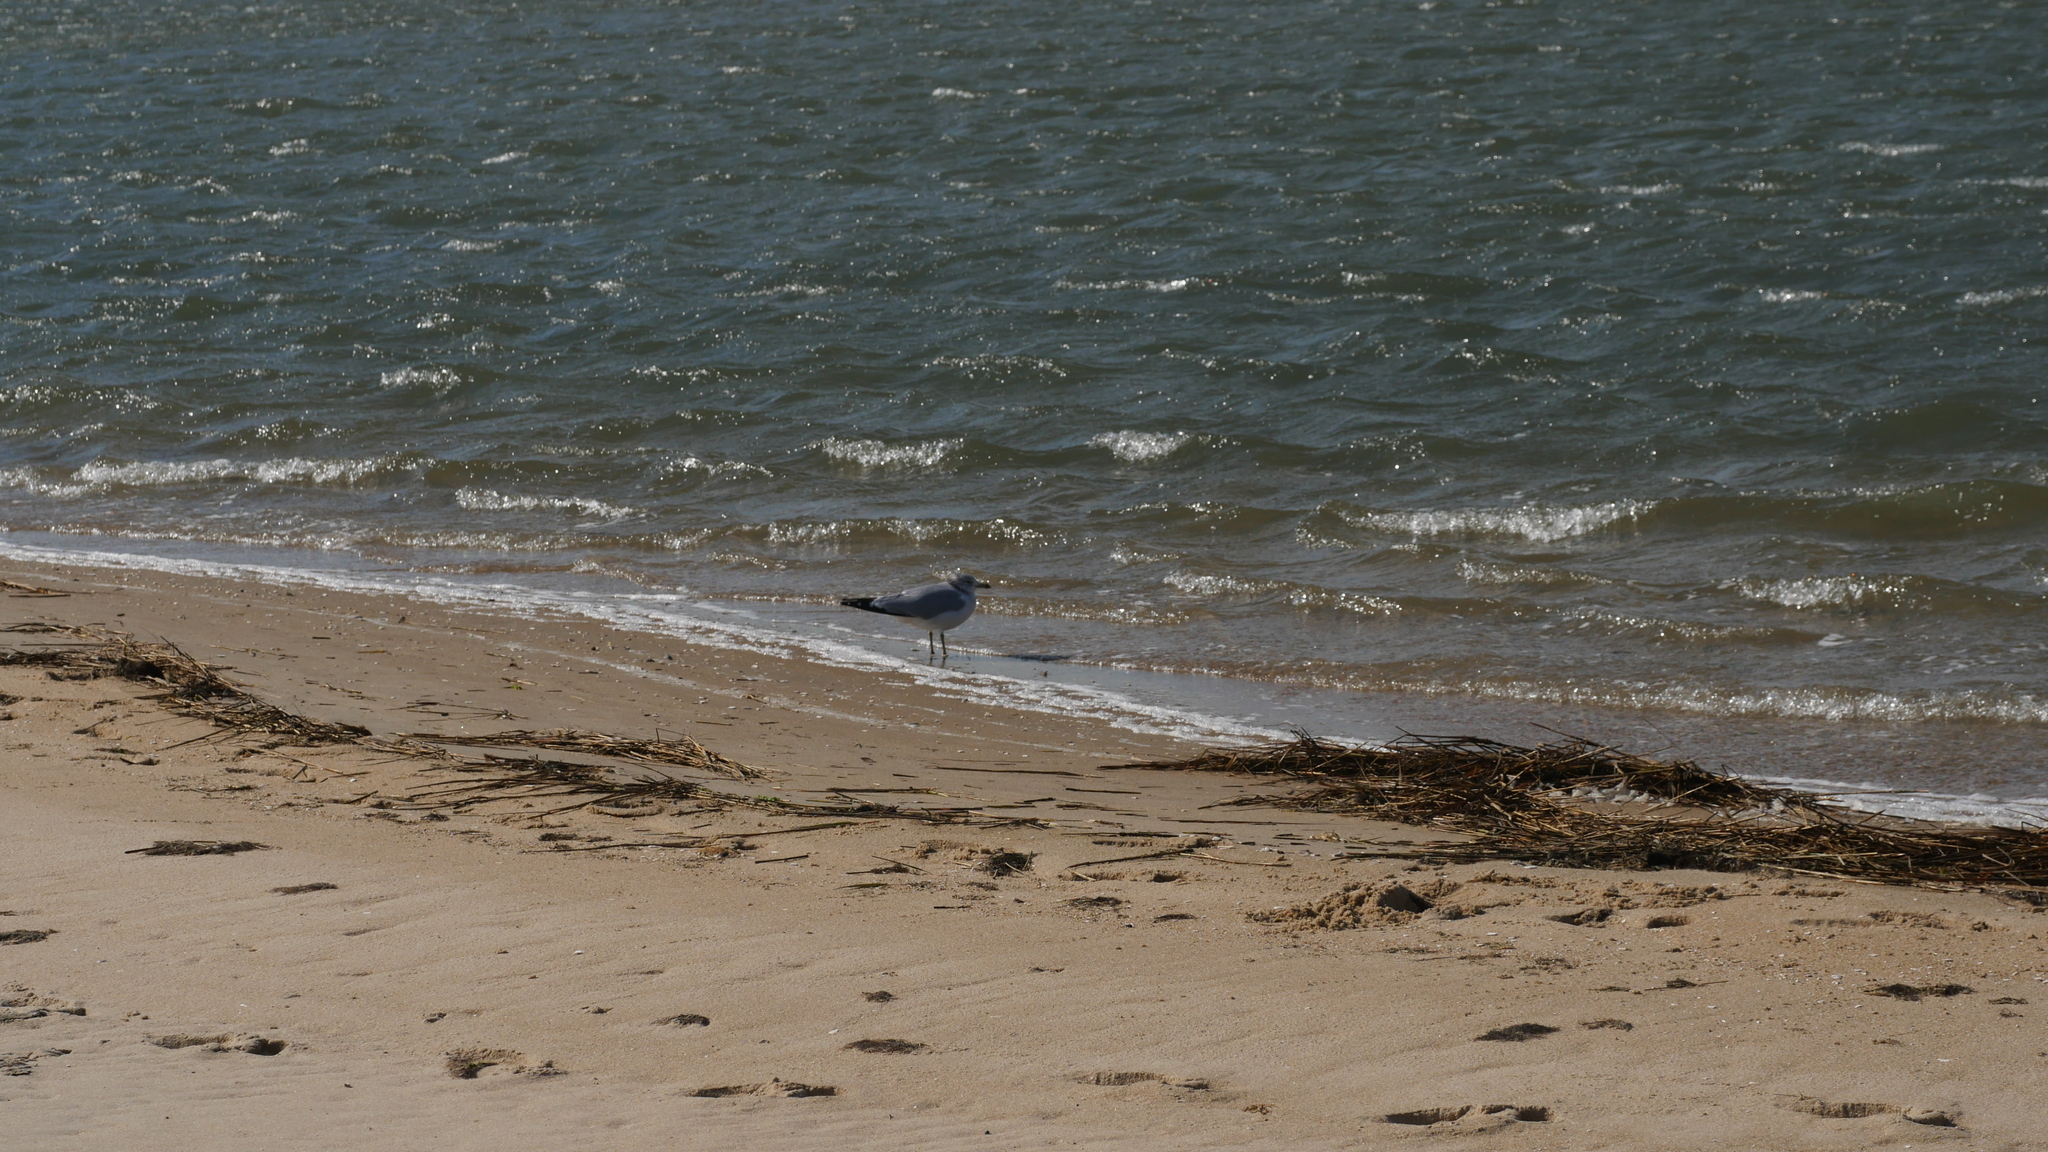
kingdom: Animalia
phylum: Chordata
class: Aves
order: Charadriiformes
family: Laridae
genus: Larus
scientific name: Larus delawarensis
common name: Ring-billed gull
